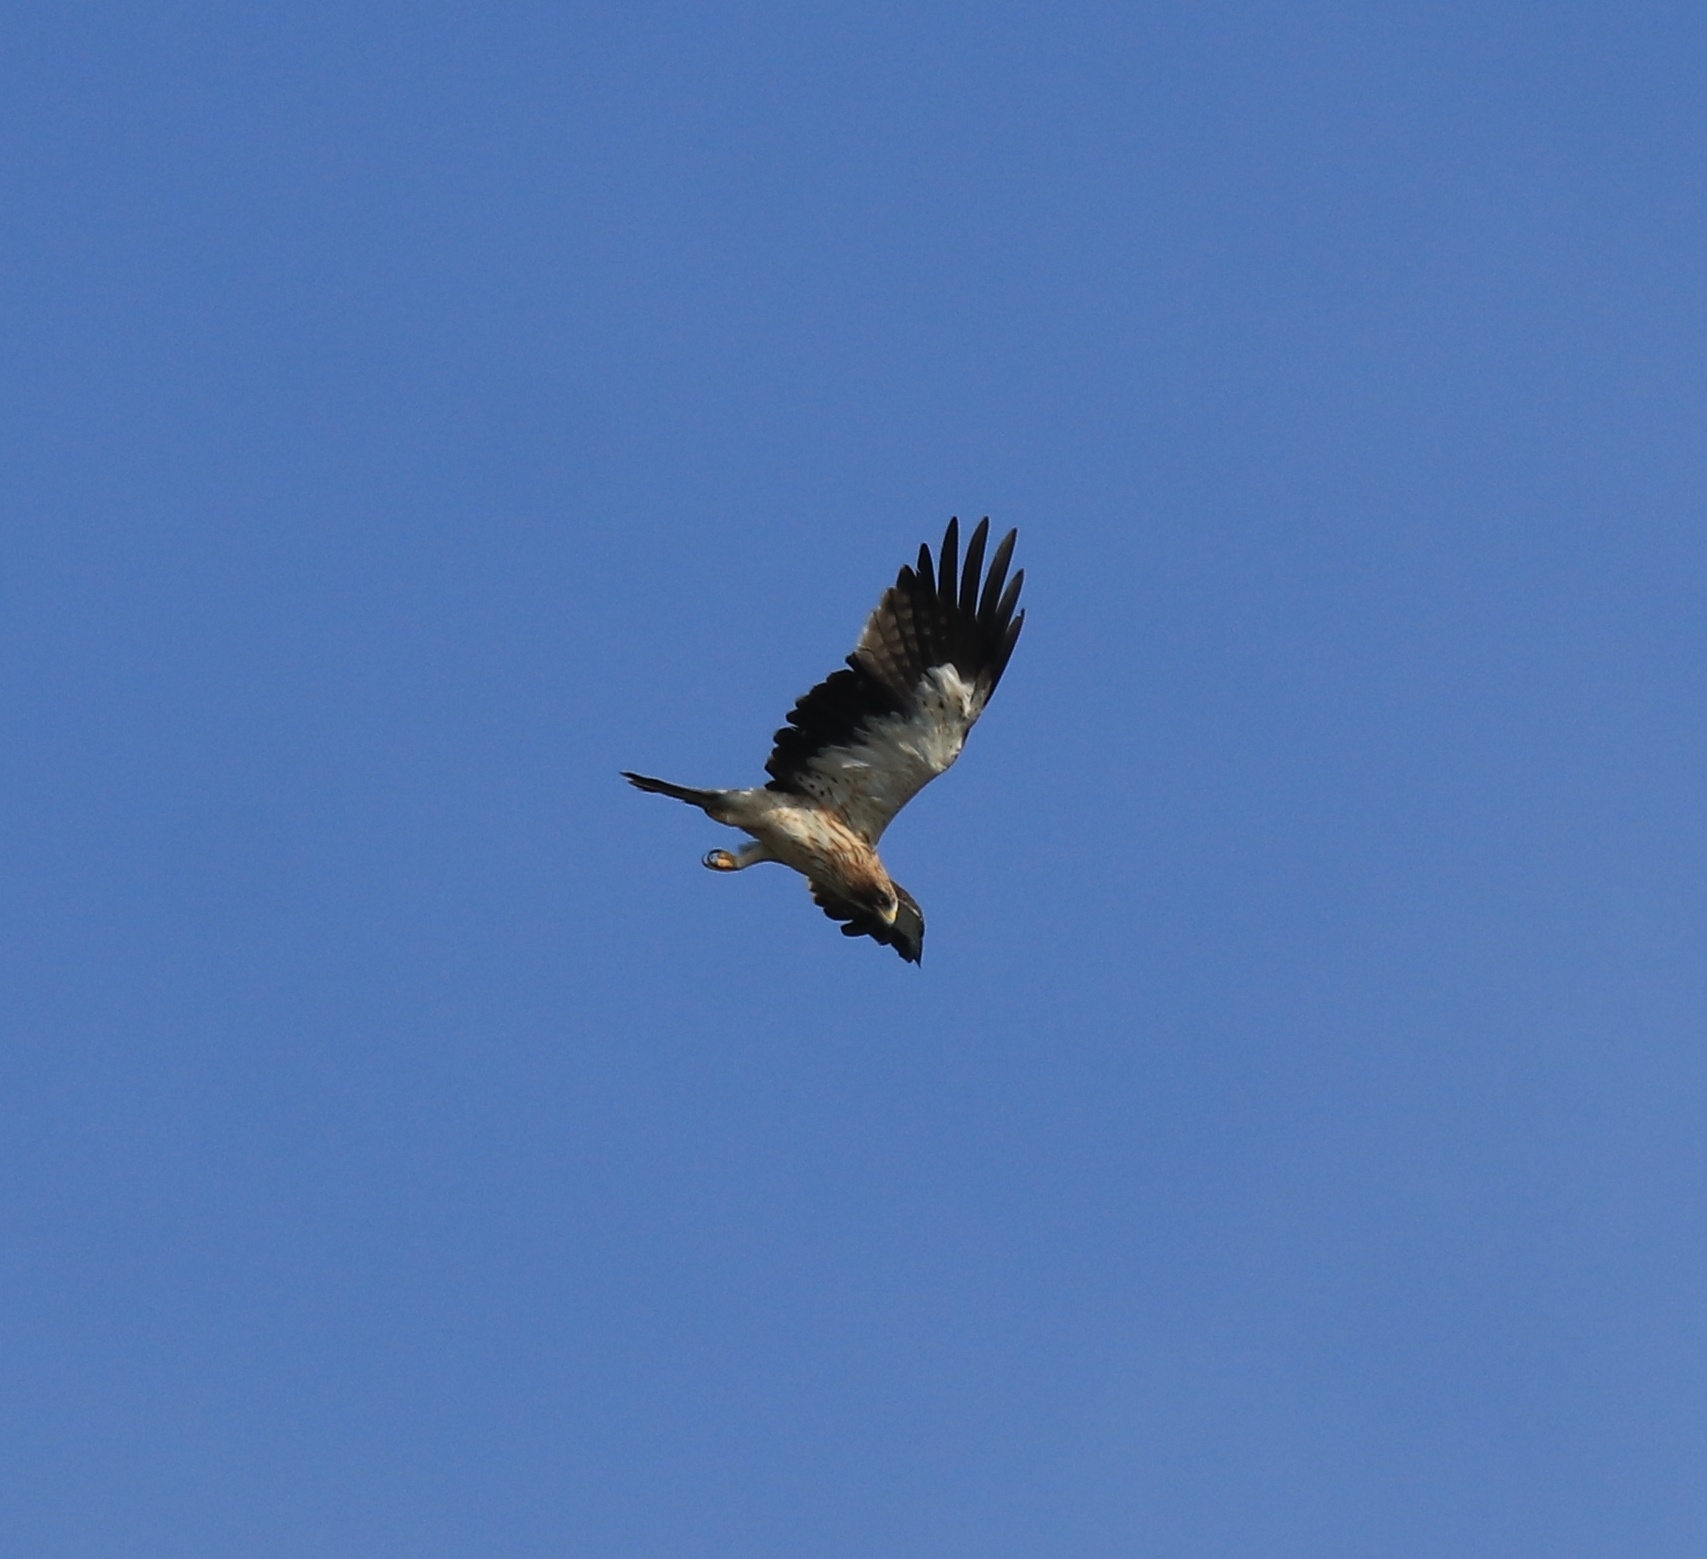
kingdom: Animalia
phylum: Chordata
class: Aves
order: Accipitriformes
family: Accipitridae
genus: Hieraaetus
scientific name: Hieraaetus pennatus
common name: Booted eagle
